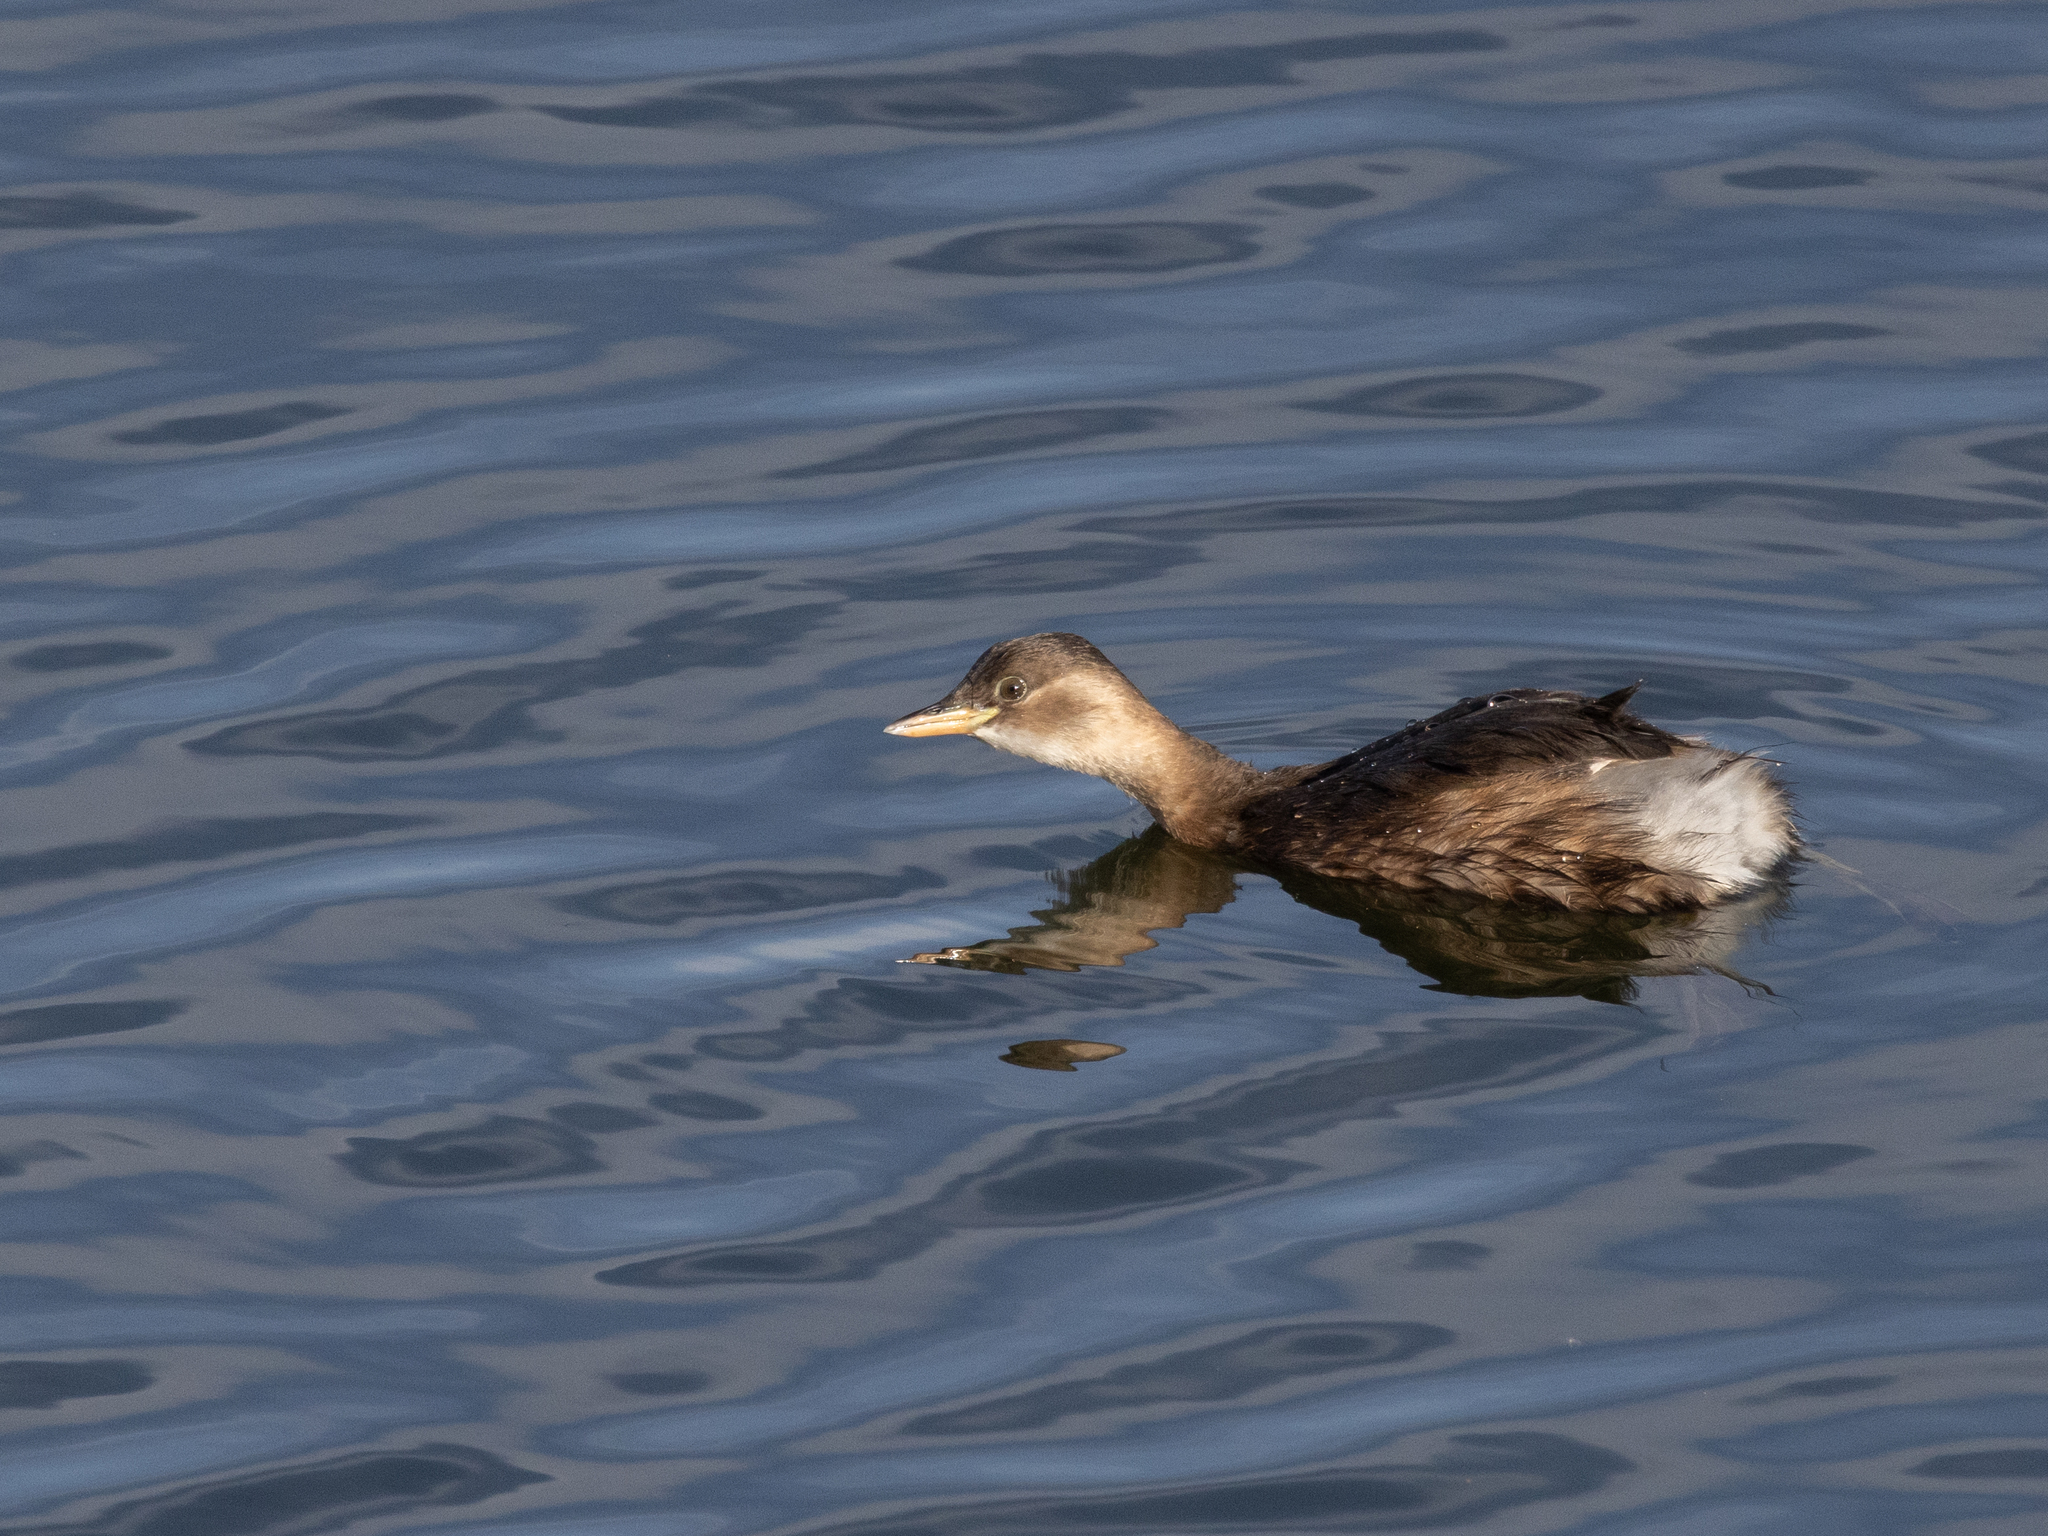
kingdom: Animalia
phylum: Chordata
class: Aves
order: Podicipediformes
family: Podicipedidae
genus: Tachybaptus
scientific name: Tachybaptus ruficollis
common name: Little grebe
